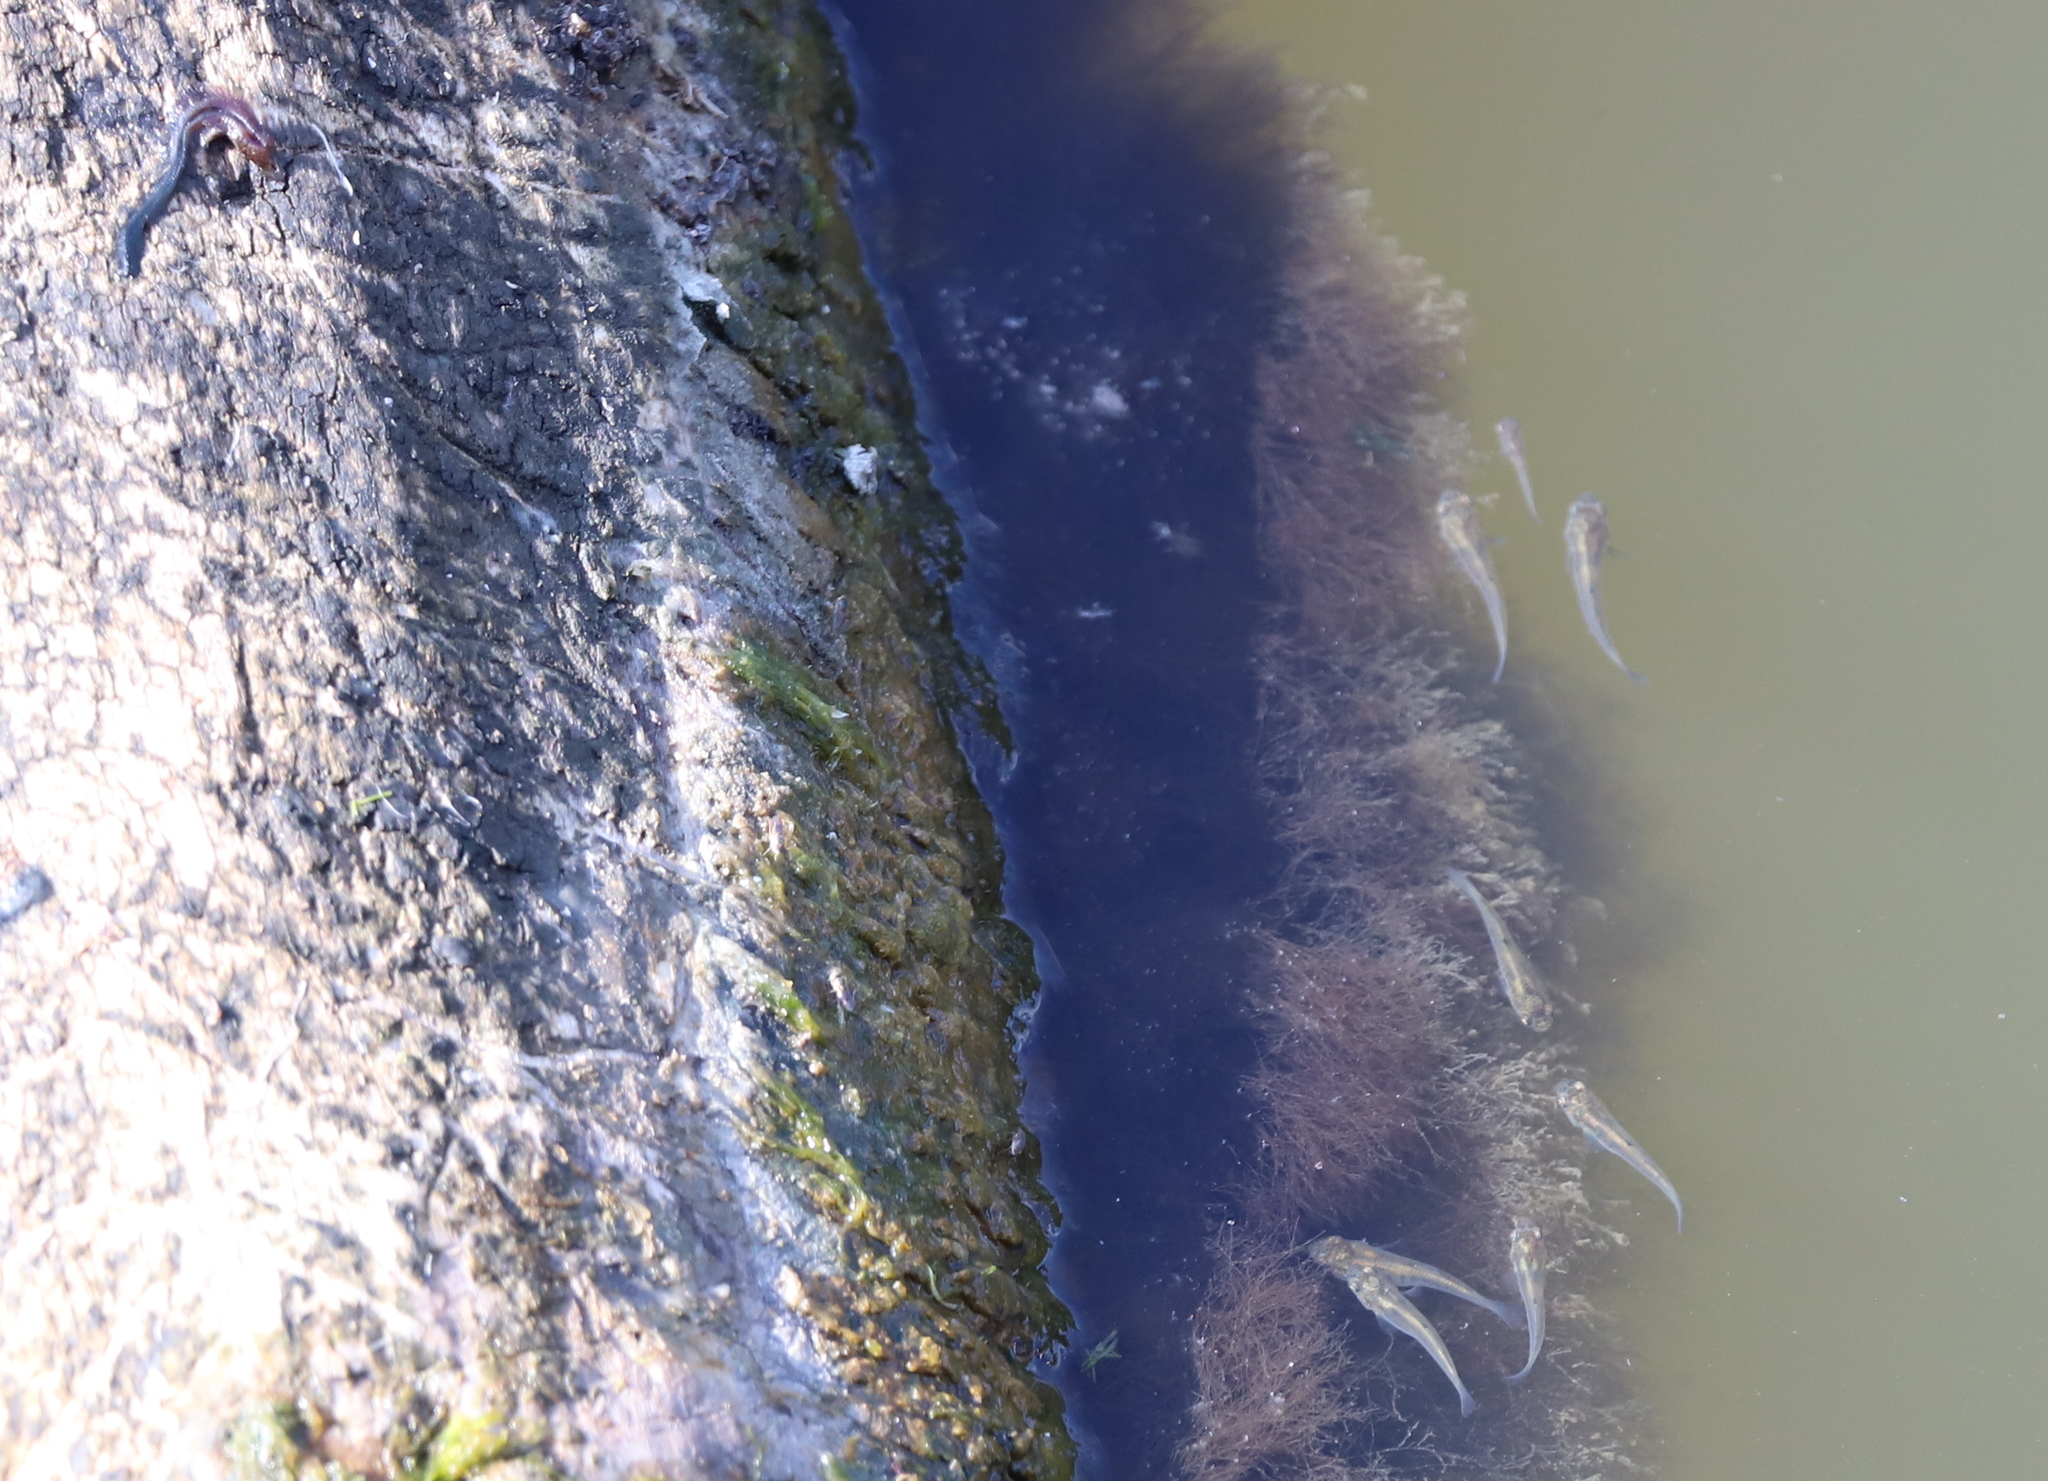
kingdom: Animalia
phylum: Chordata
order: Cyprinodontiformes
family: Poeciliidae
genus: Gambusia
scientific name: Gambusia
